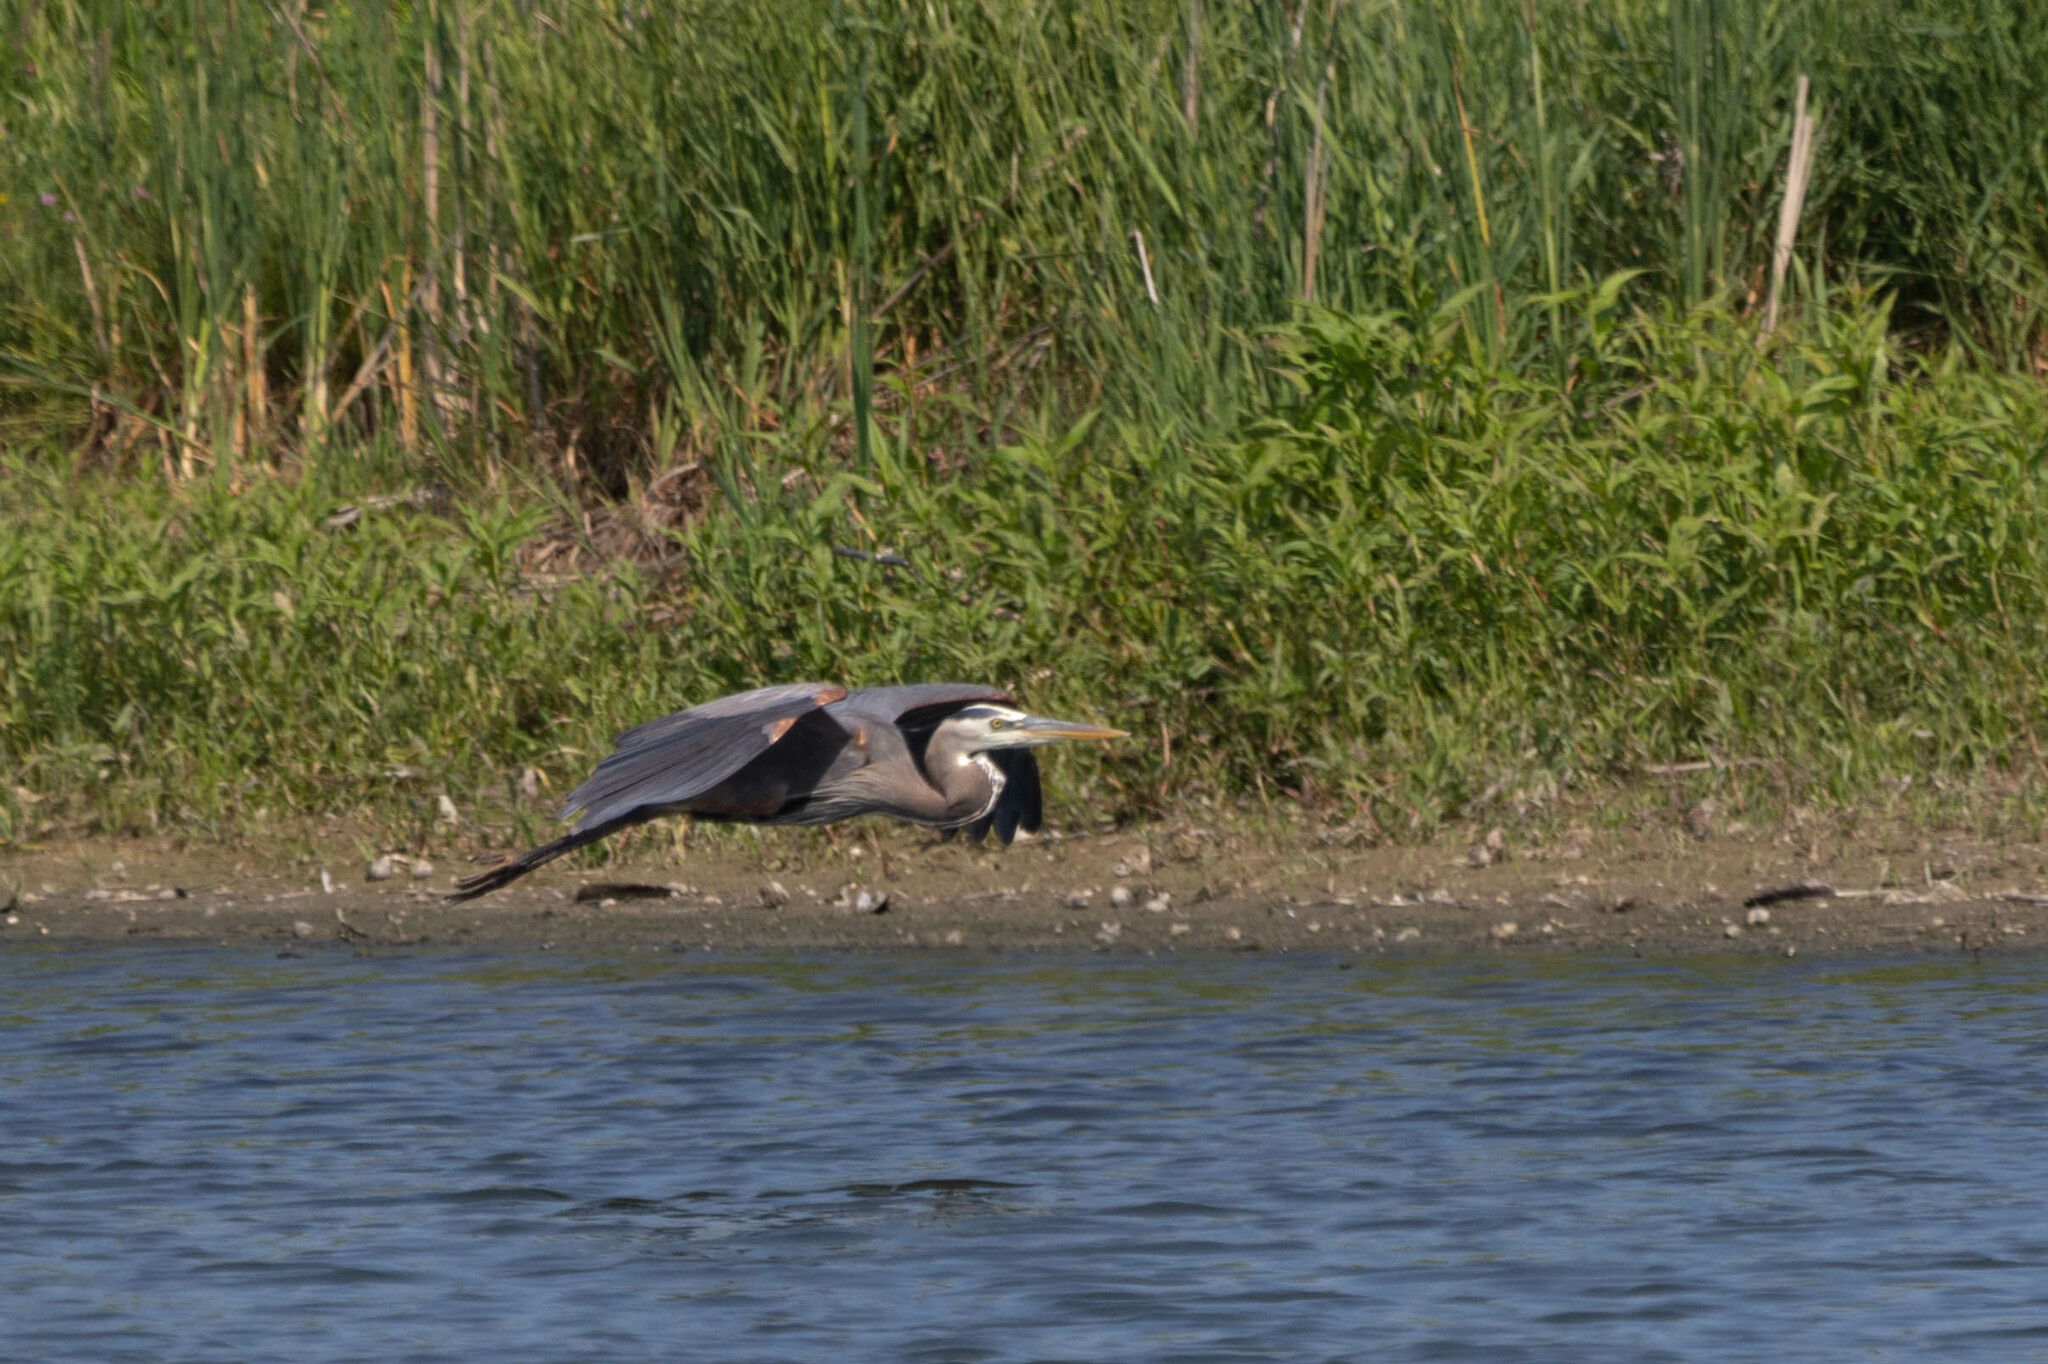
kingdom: Animalia
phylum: Chordata
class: Aves
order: Pelecaniformes
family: Ardeidae
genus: Ardea
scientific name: Ardea herodias
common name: Great blue heron
